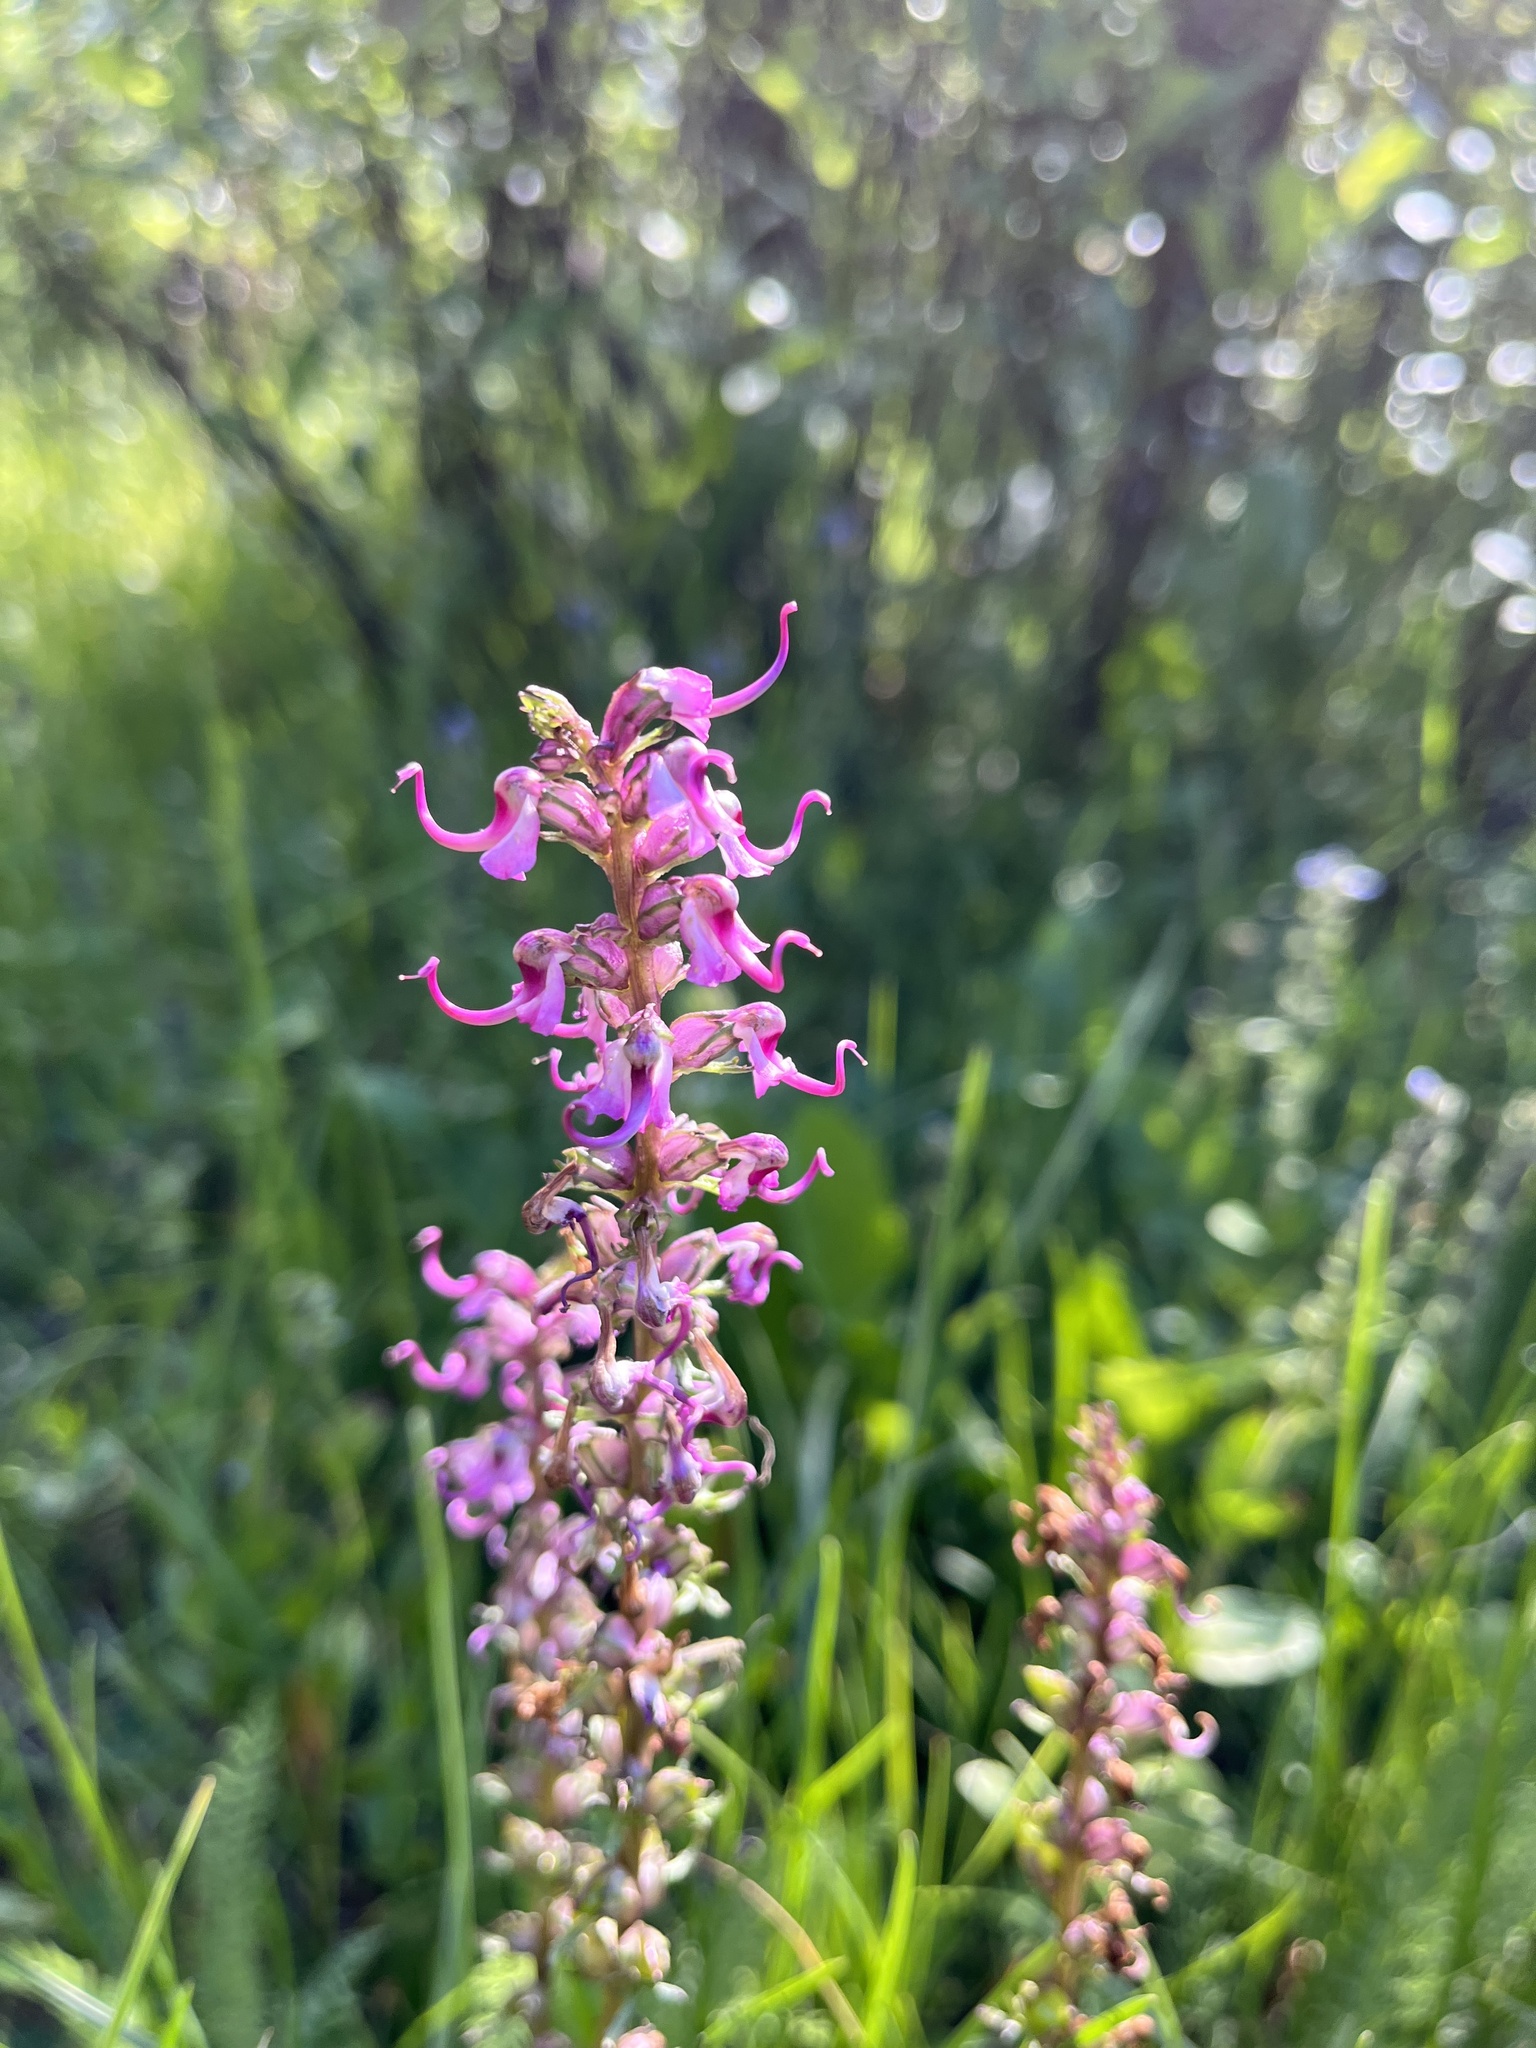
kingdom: Plantae
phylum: Tracheophyta
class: Magnoliopsida
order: Lamiales
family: Orobanchaceae
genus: Pedicularis
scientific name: Pedicularis groenlandica
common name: Elephant's-head
